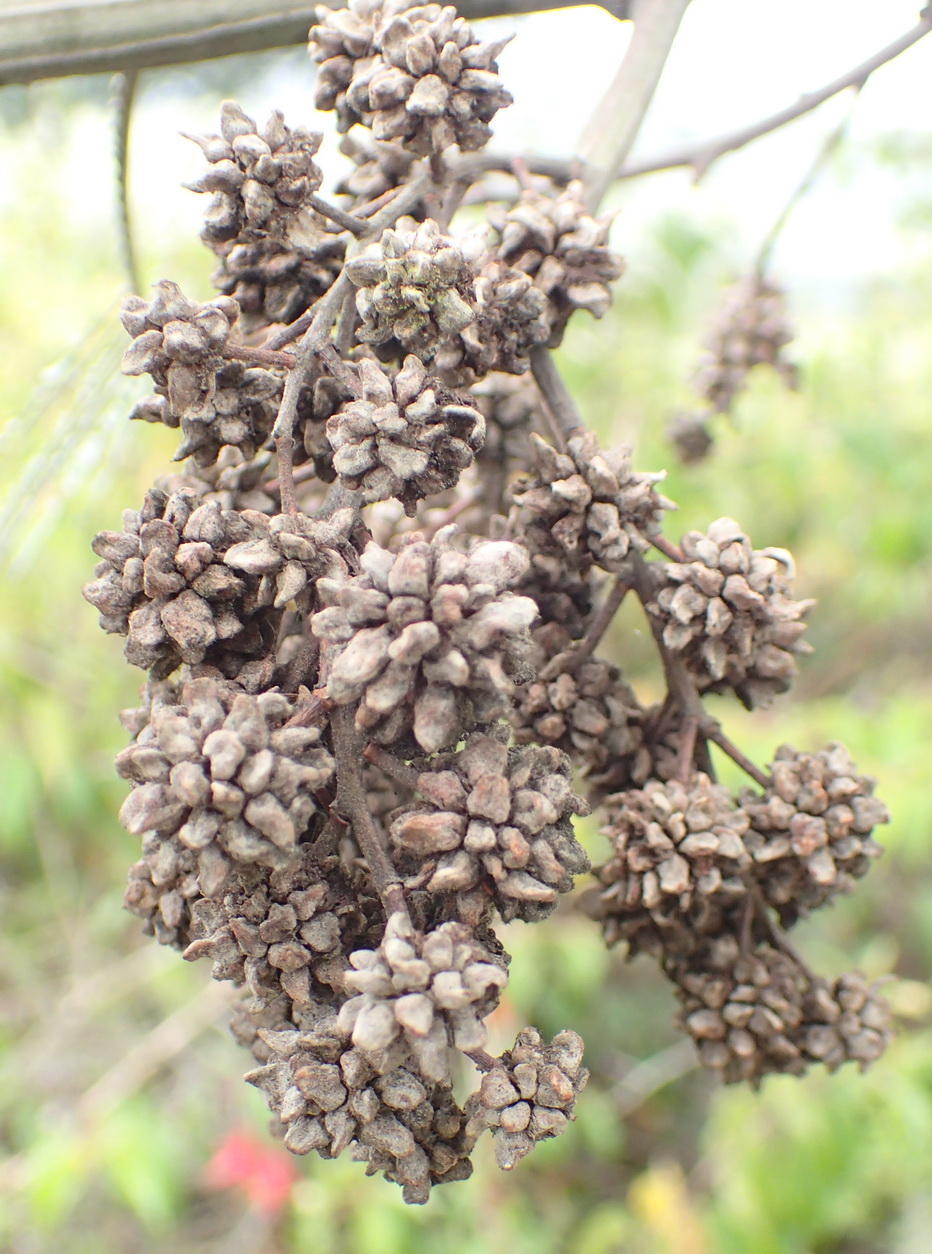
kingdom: Animalia
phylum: Arthropoda
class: Insecta
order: Diptera
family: Cecidomyiidae
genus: Dasineura
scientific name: Dasineura rubiformis
